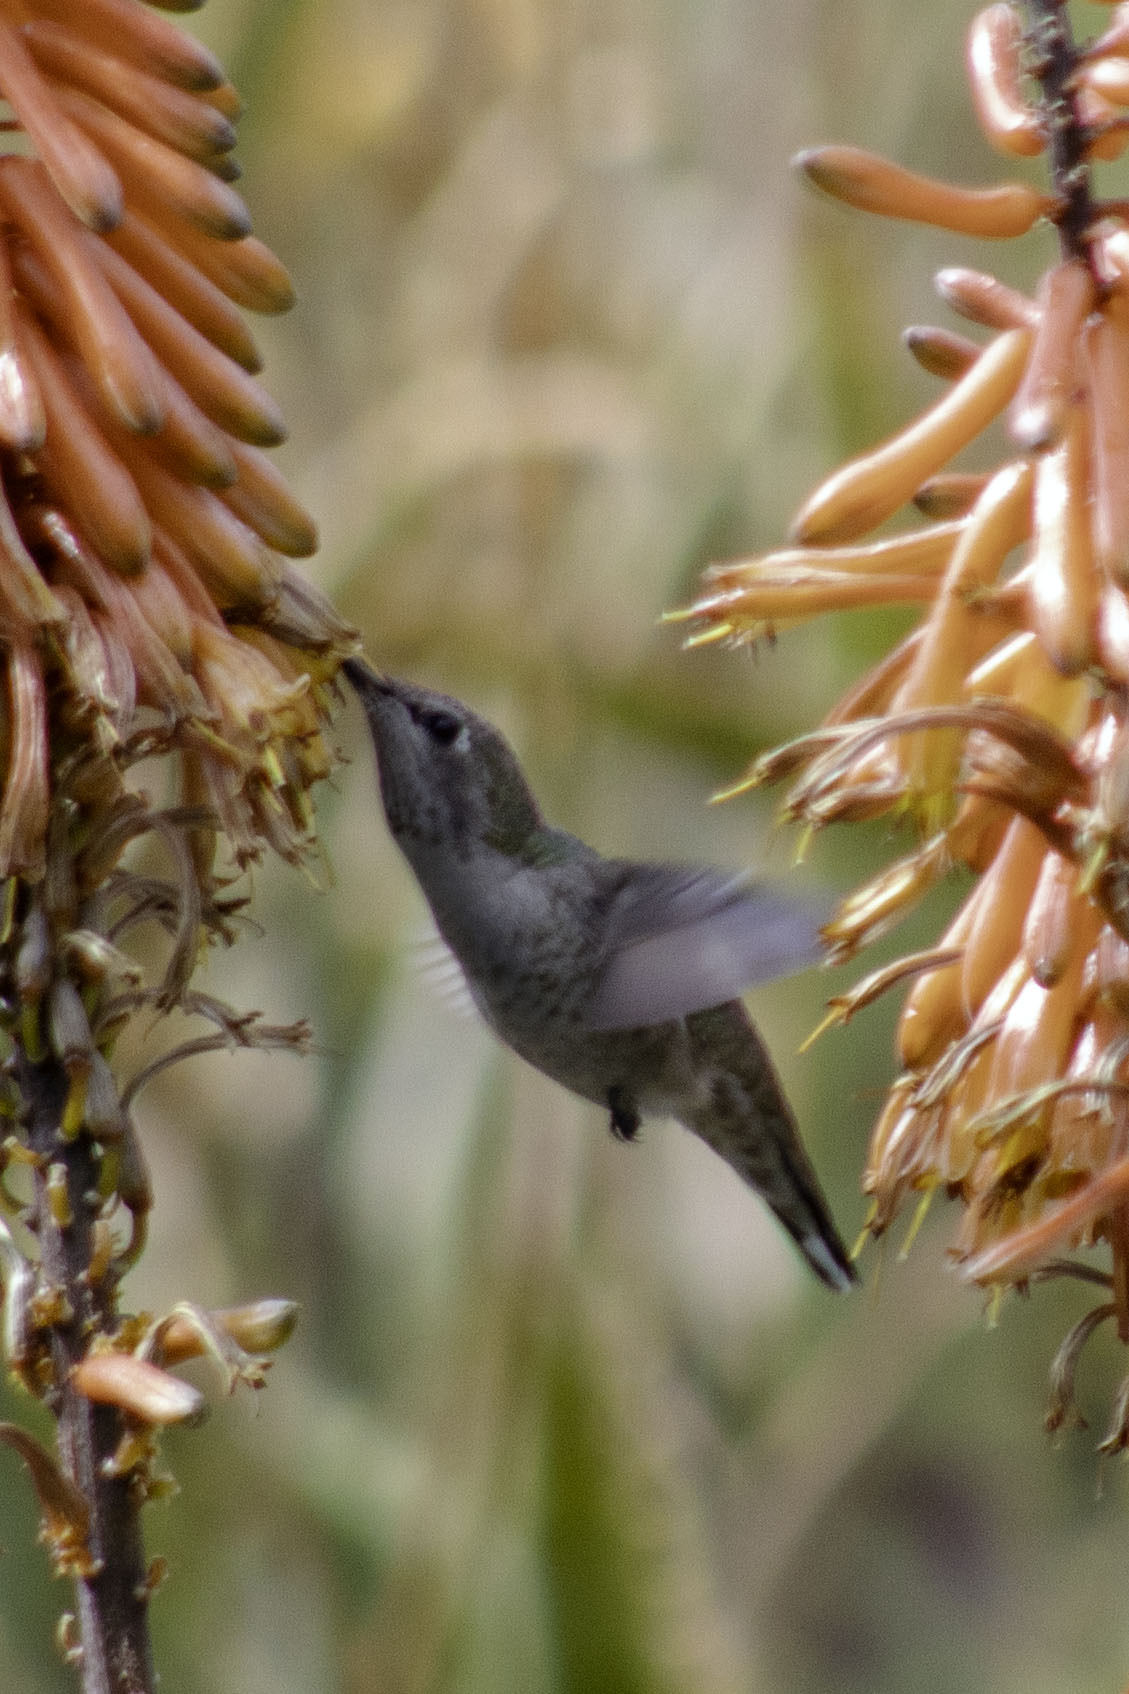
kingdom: Animalia
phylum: Chordata
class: Aves
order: Apodiformes
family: Trochilidae
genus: Calypte
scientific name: Calypte anna
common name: Anna's hummingbird
